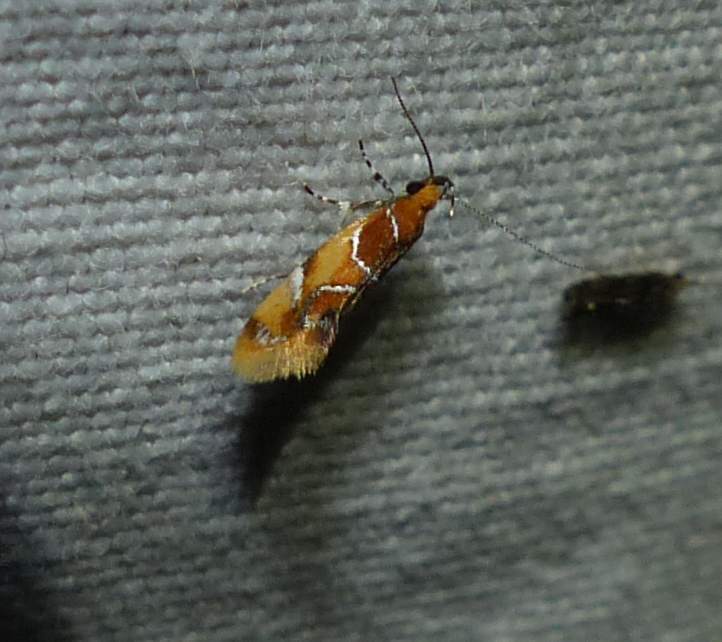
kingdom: Animalia
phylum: Arthropoda
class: Insecta
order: Lepidoptera
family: Oecophoridae
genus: Callima
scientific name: Callima argenticinctella
